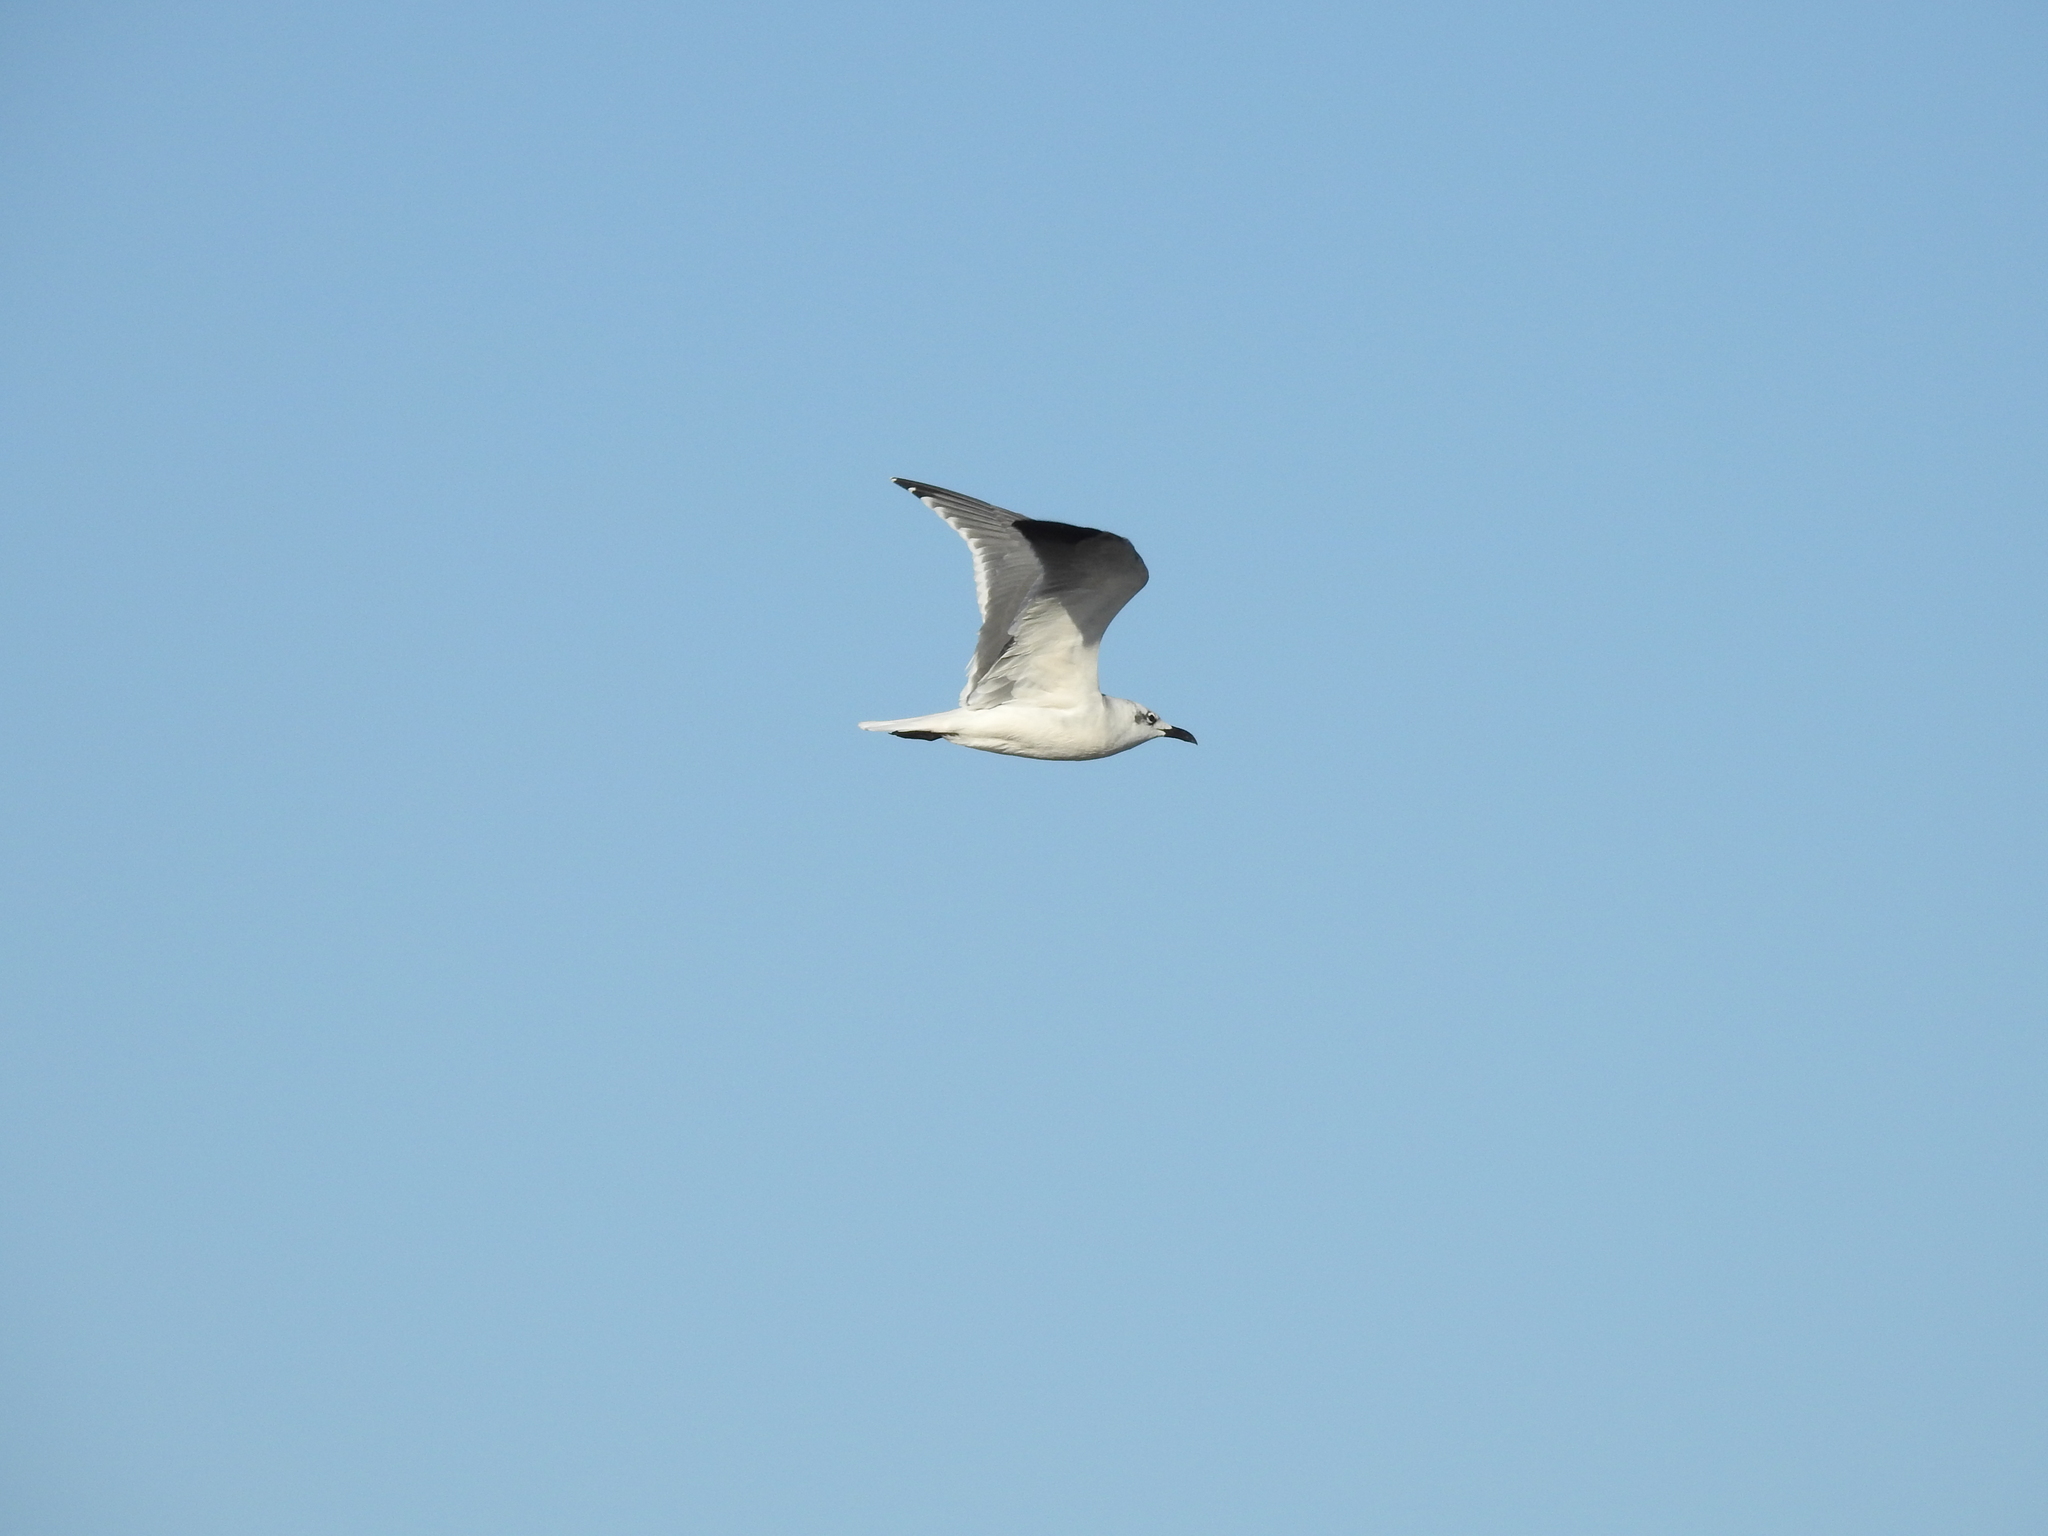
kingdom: Animalia
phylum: Chordata
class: Aves
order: Charadriiformes
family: Laridae
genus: Leucophaeus
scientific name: Leucophaeus atricilla
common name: Laughing gull
